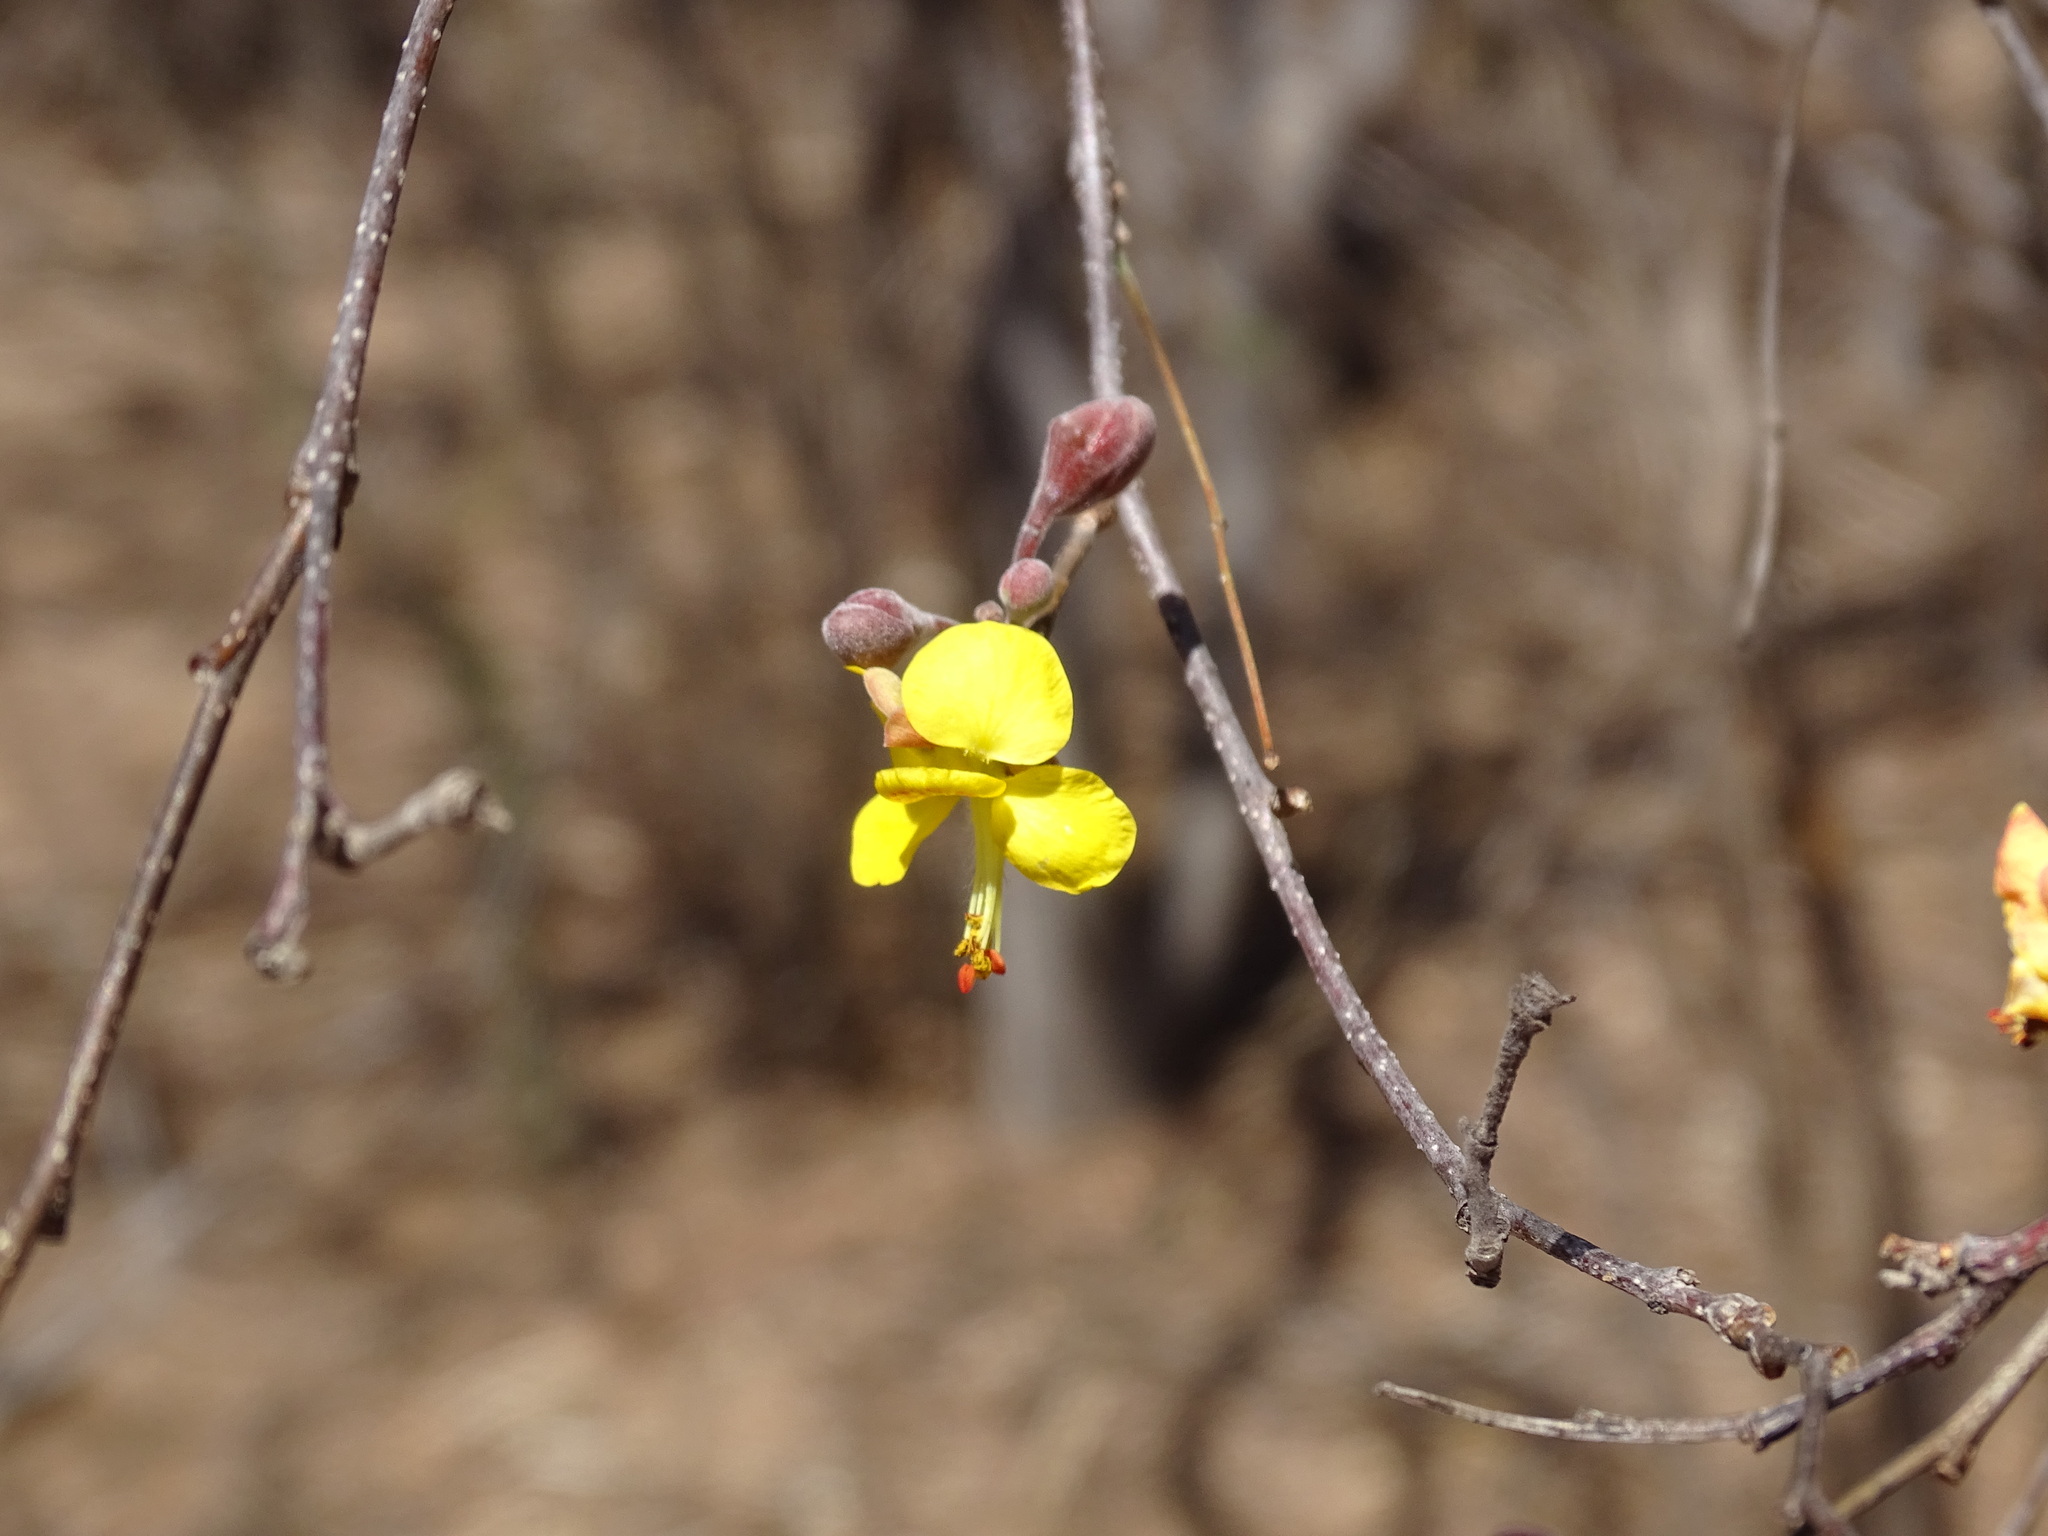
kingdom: Plantae
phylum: Tracheophyta
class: Magnoliopsida
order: Fabales
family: Fabaceae
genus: Erythrostemon
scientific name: Erythrostemon palmeri
